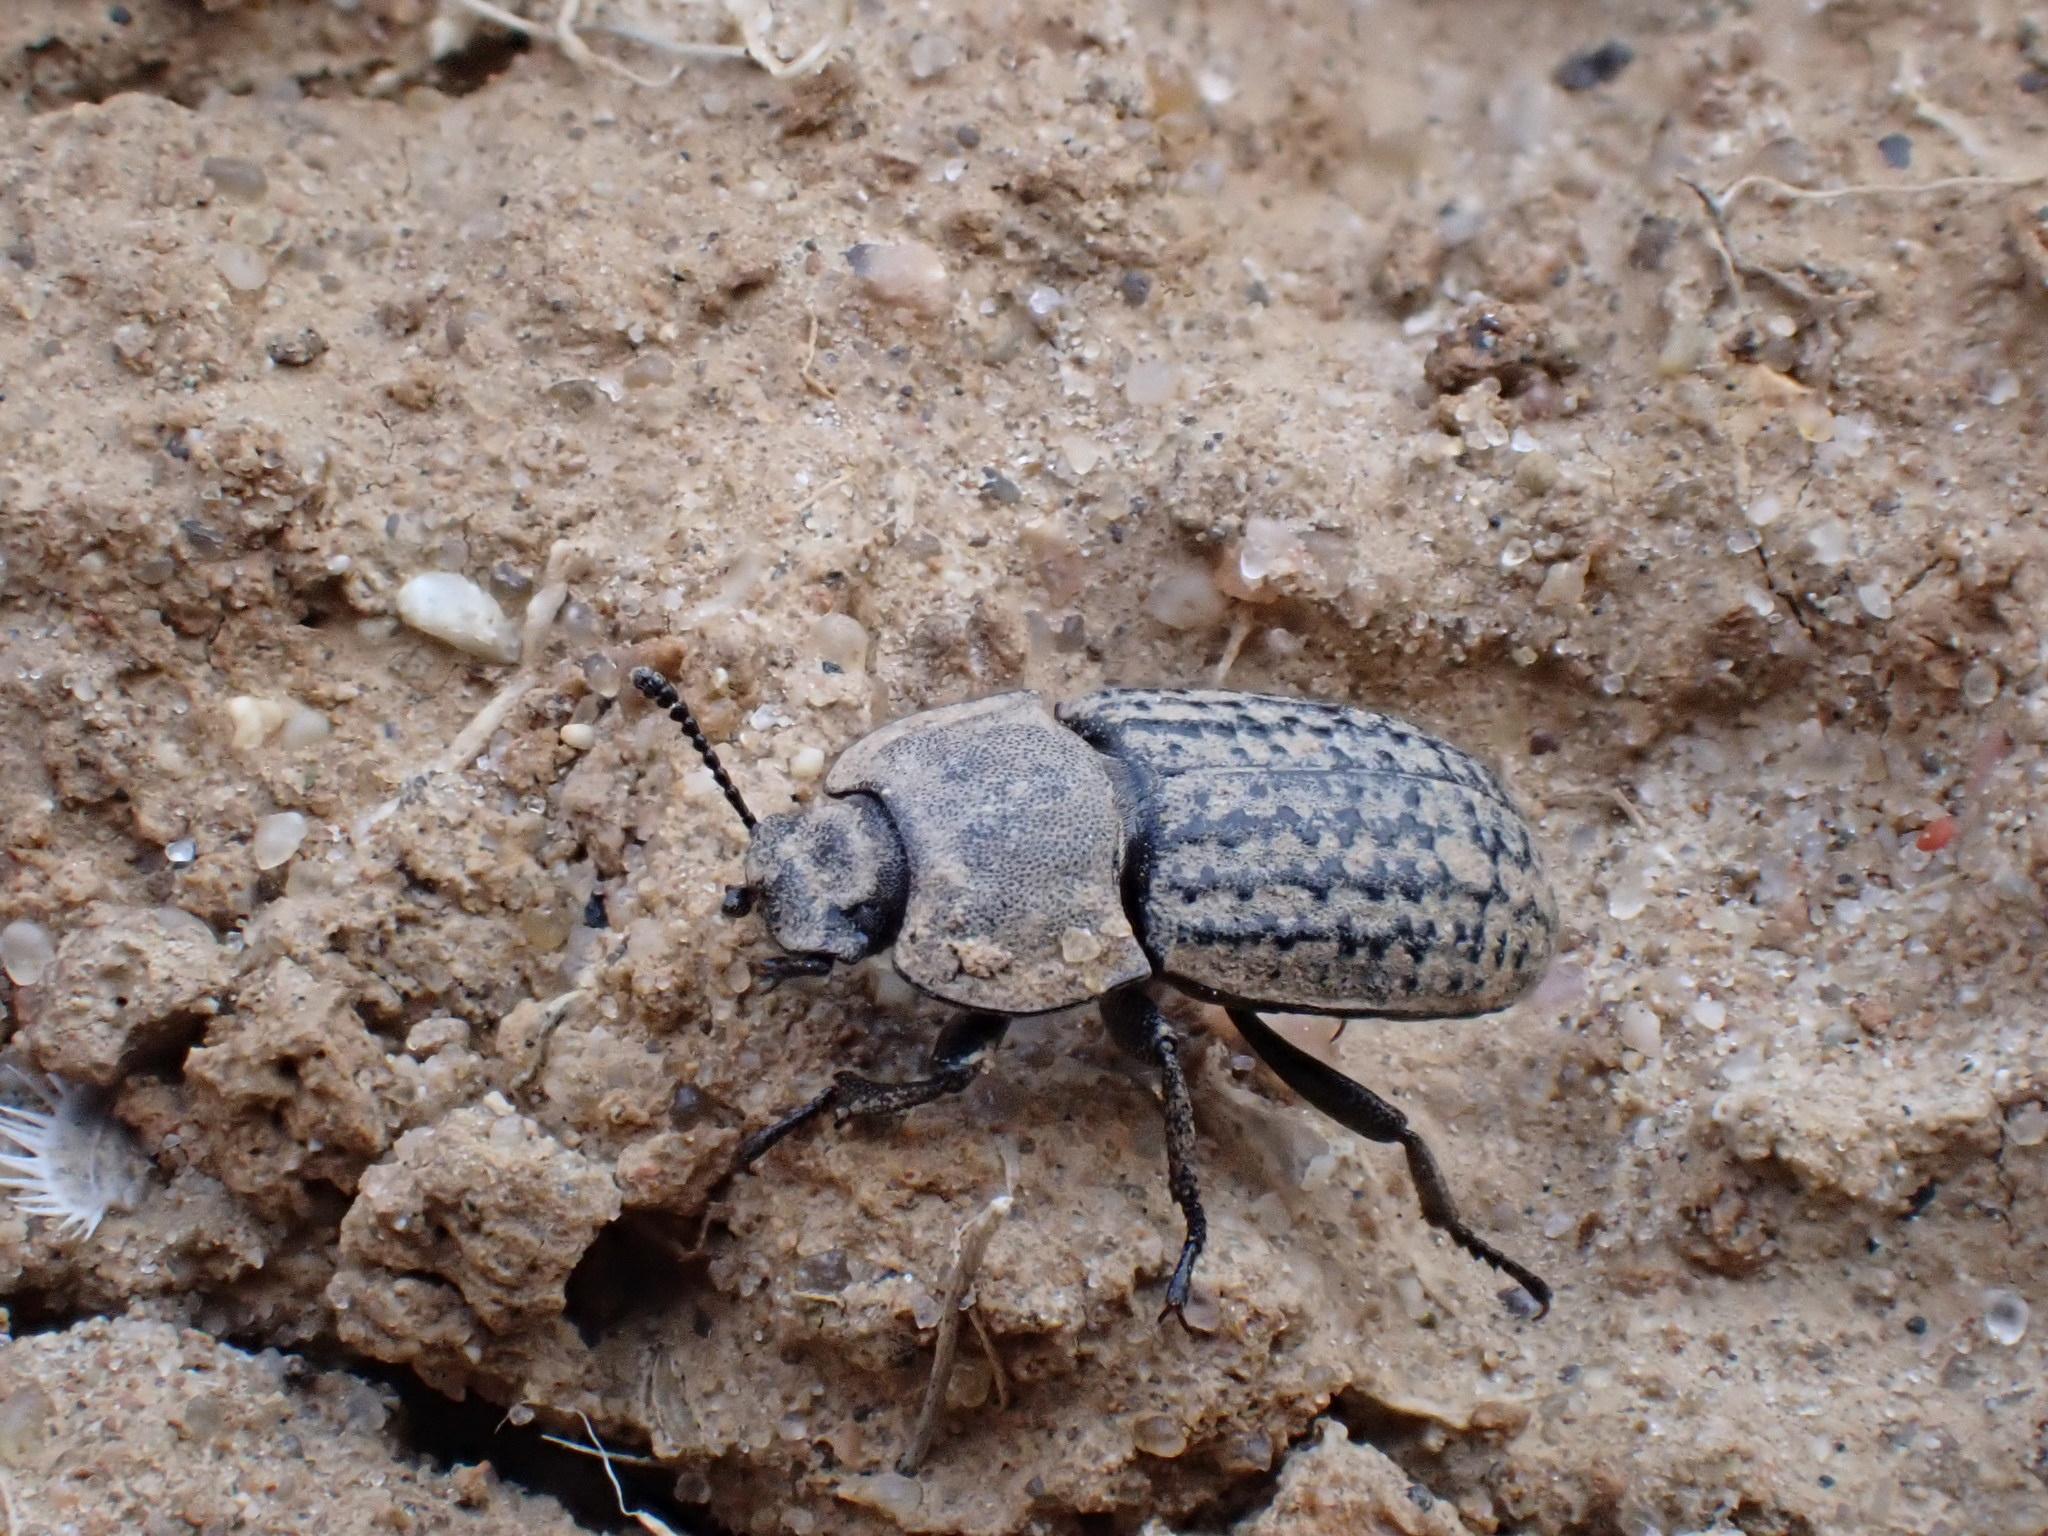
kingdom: Animalia
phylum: Arthropoda
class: Insecta
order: Coleoptera
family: Tenebrionidae
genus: Opatrum
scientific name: Opatrum sabulosum
